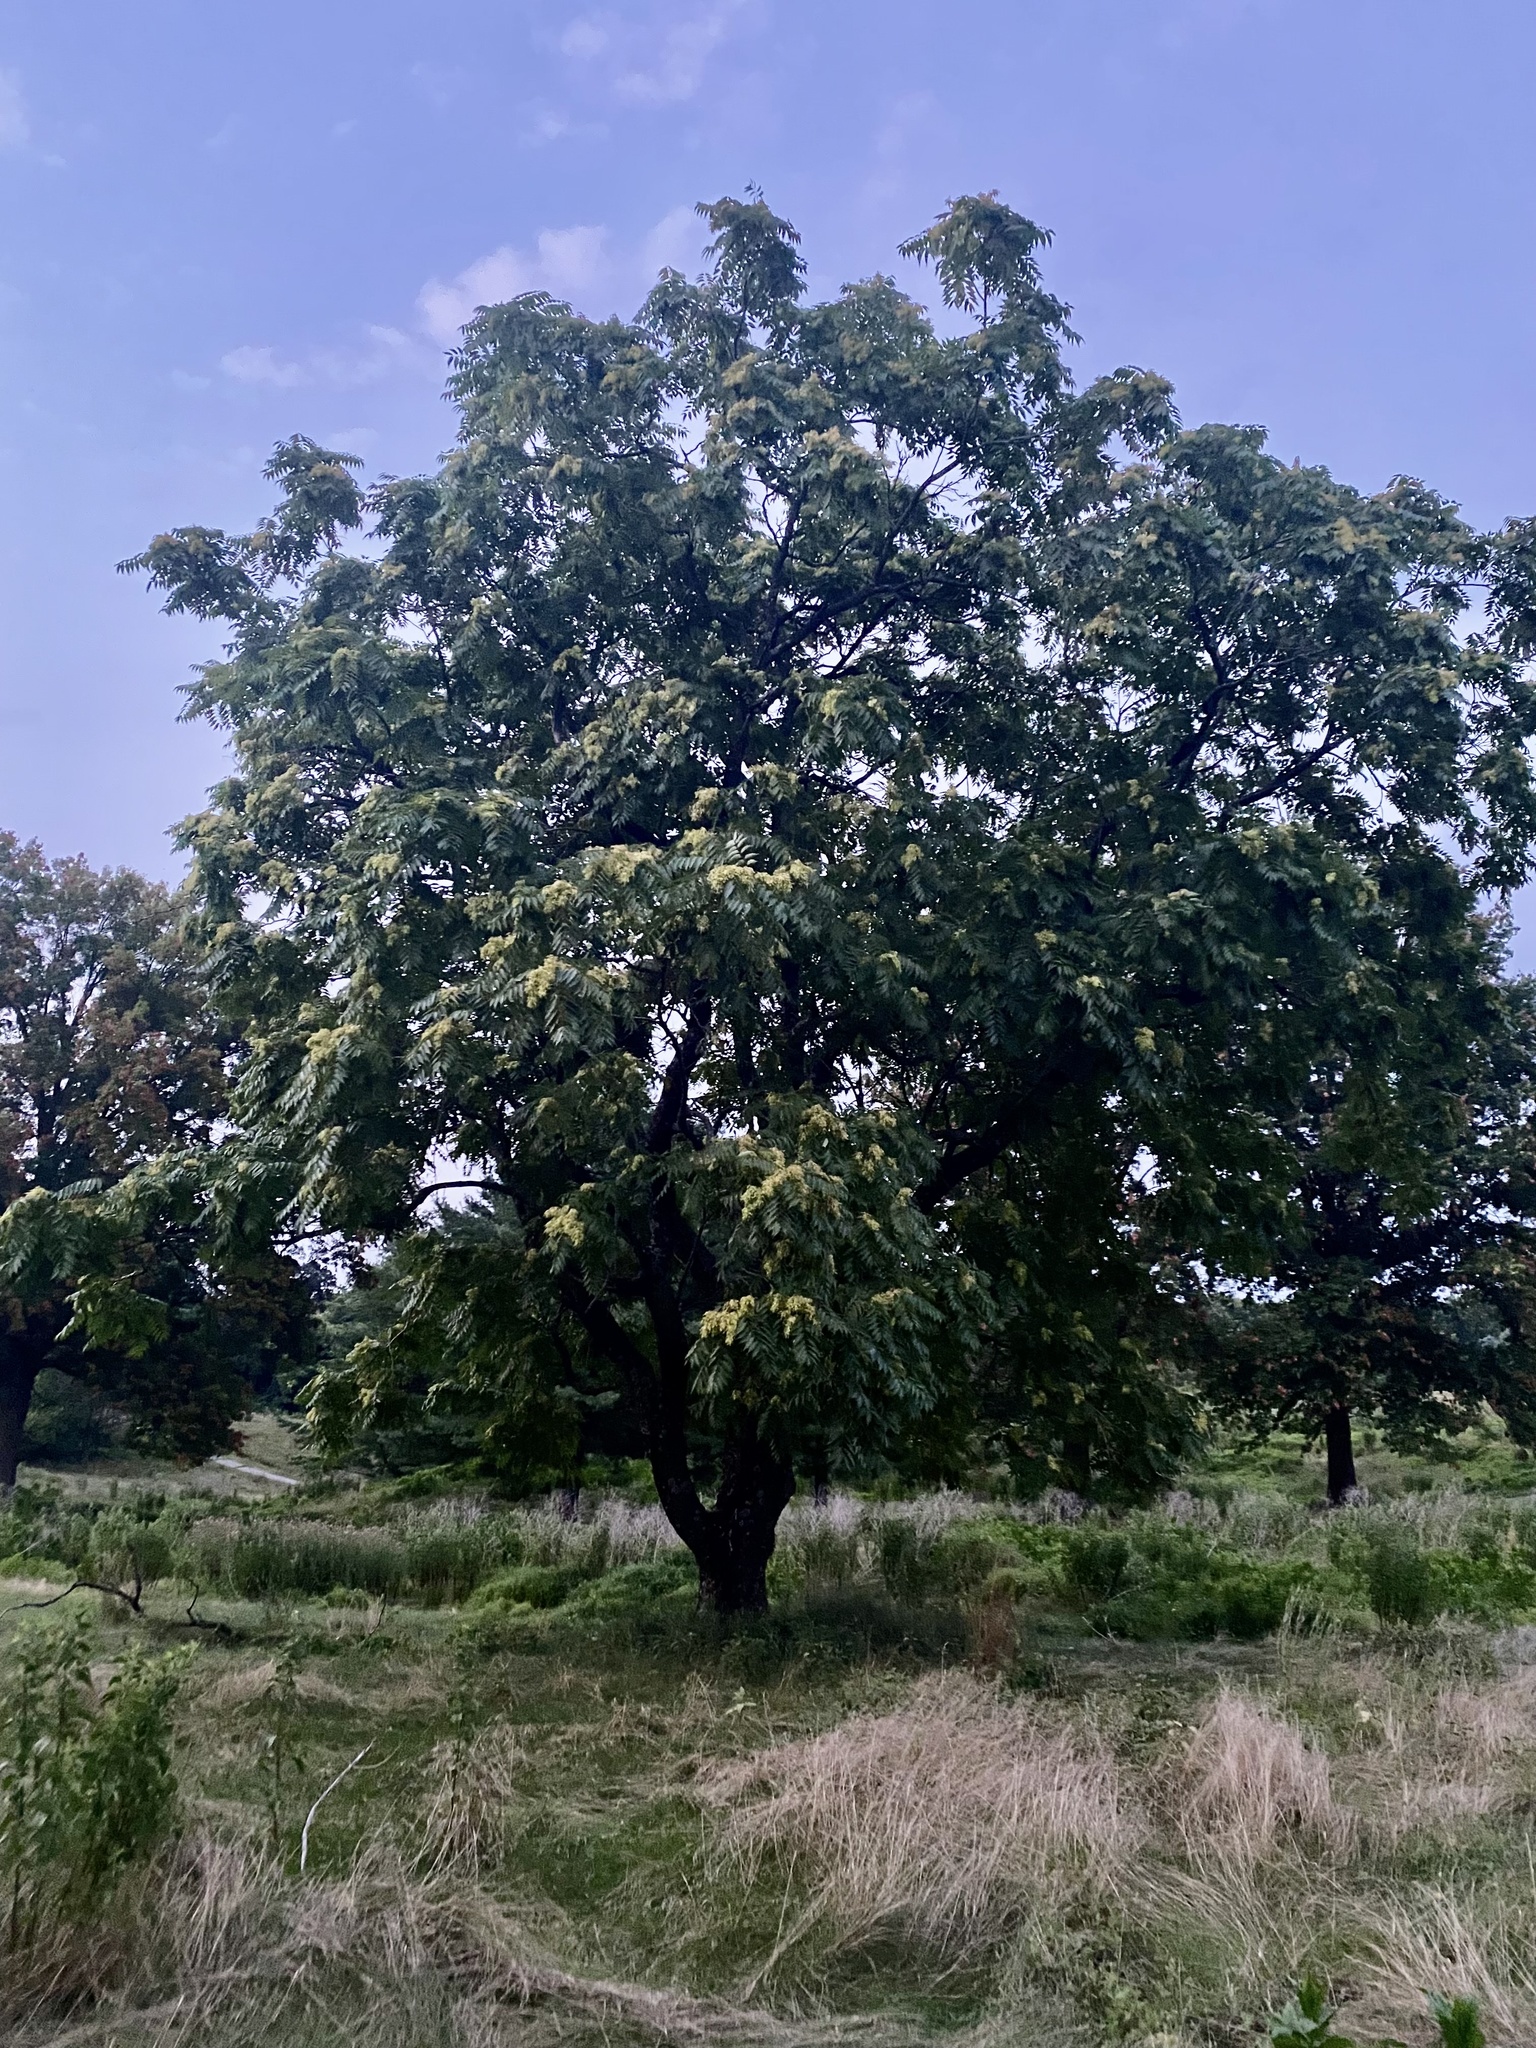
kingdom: Plantae
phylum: Tracheophyta
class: Magnoliopsida
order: Sapindales
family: Simaroubaceae
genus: Ailanthus
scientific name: Ailanthus altissima
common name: Tree-of-heaven
